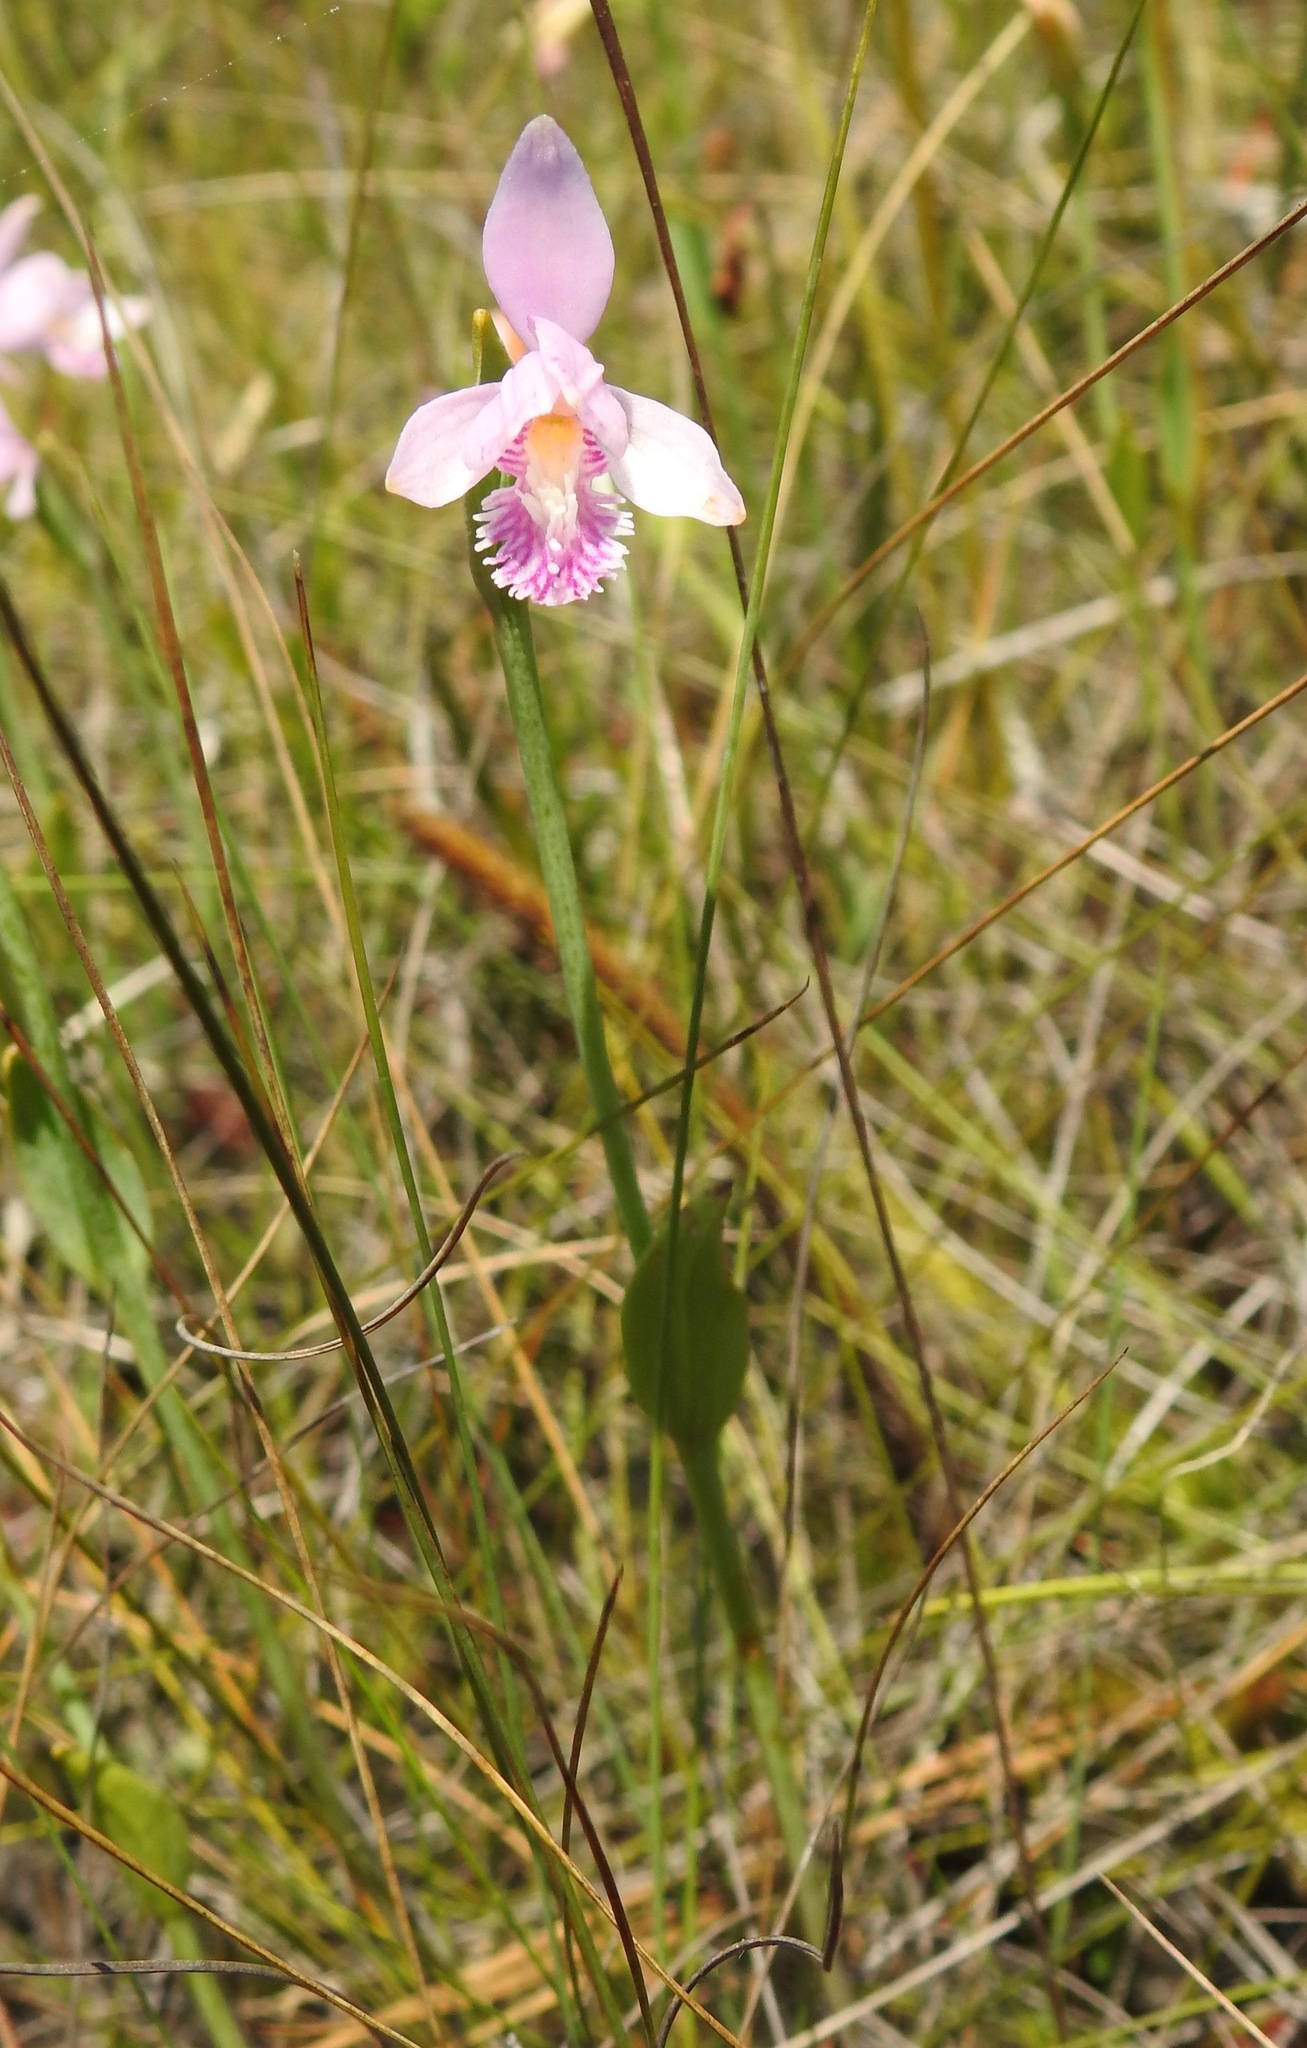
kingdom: Plantae
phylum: Tracheophyta
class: Liliopsida
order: Asparagales
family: Orchidaceae
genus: Pogonia
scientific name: Pogonia ophioglossoides
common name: Rose pogonia
